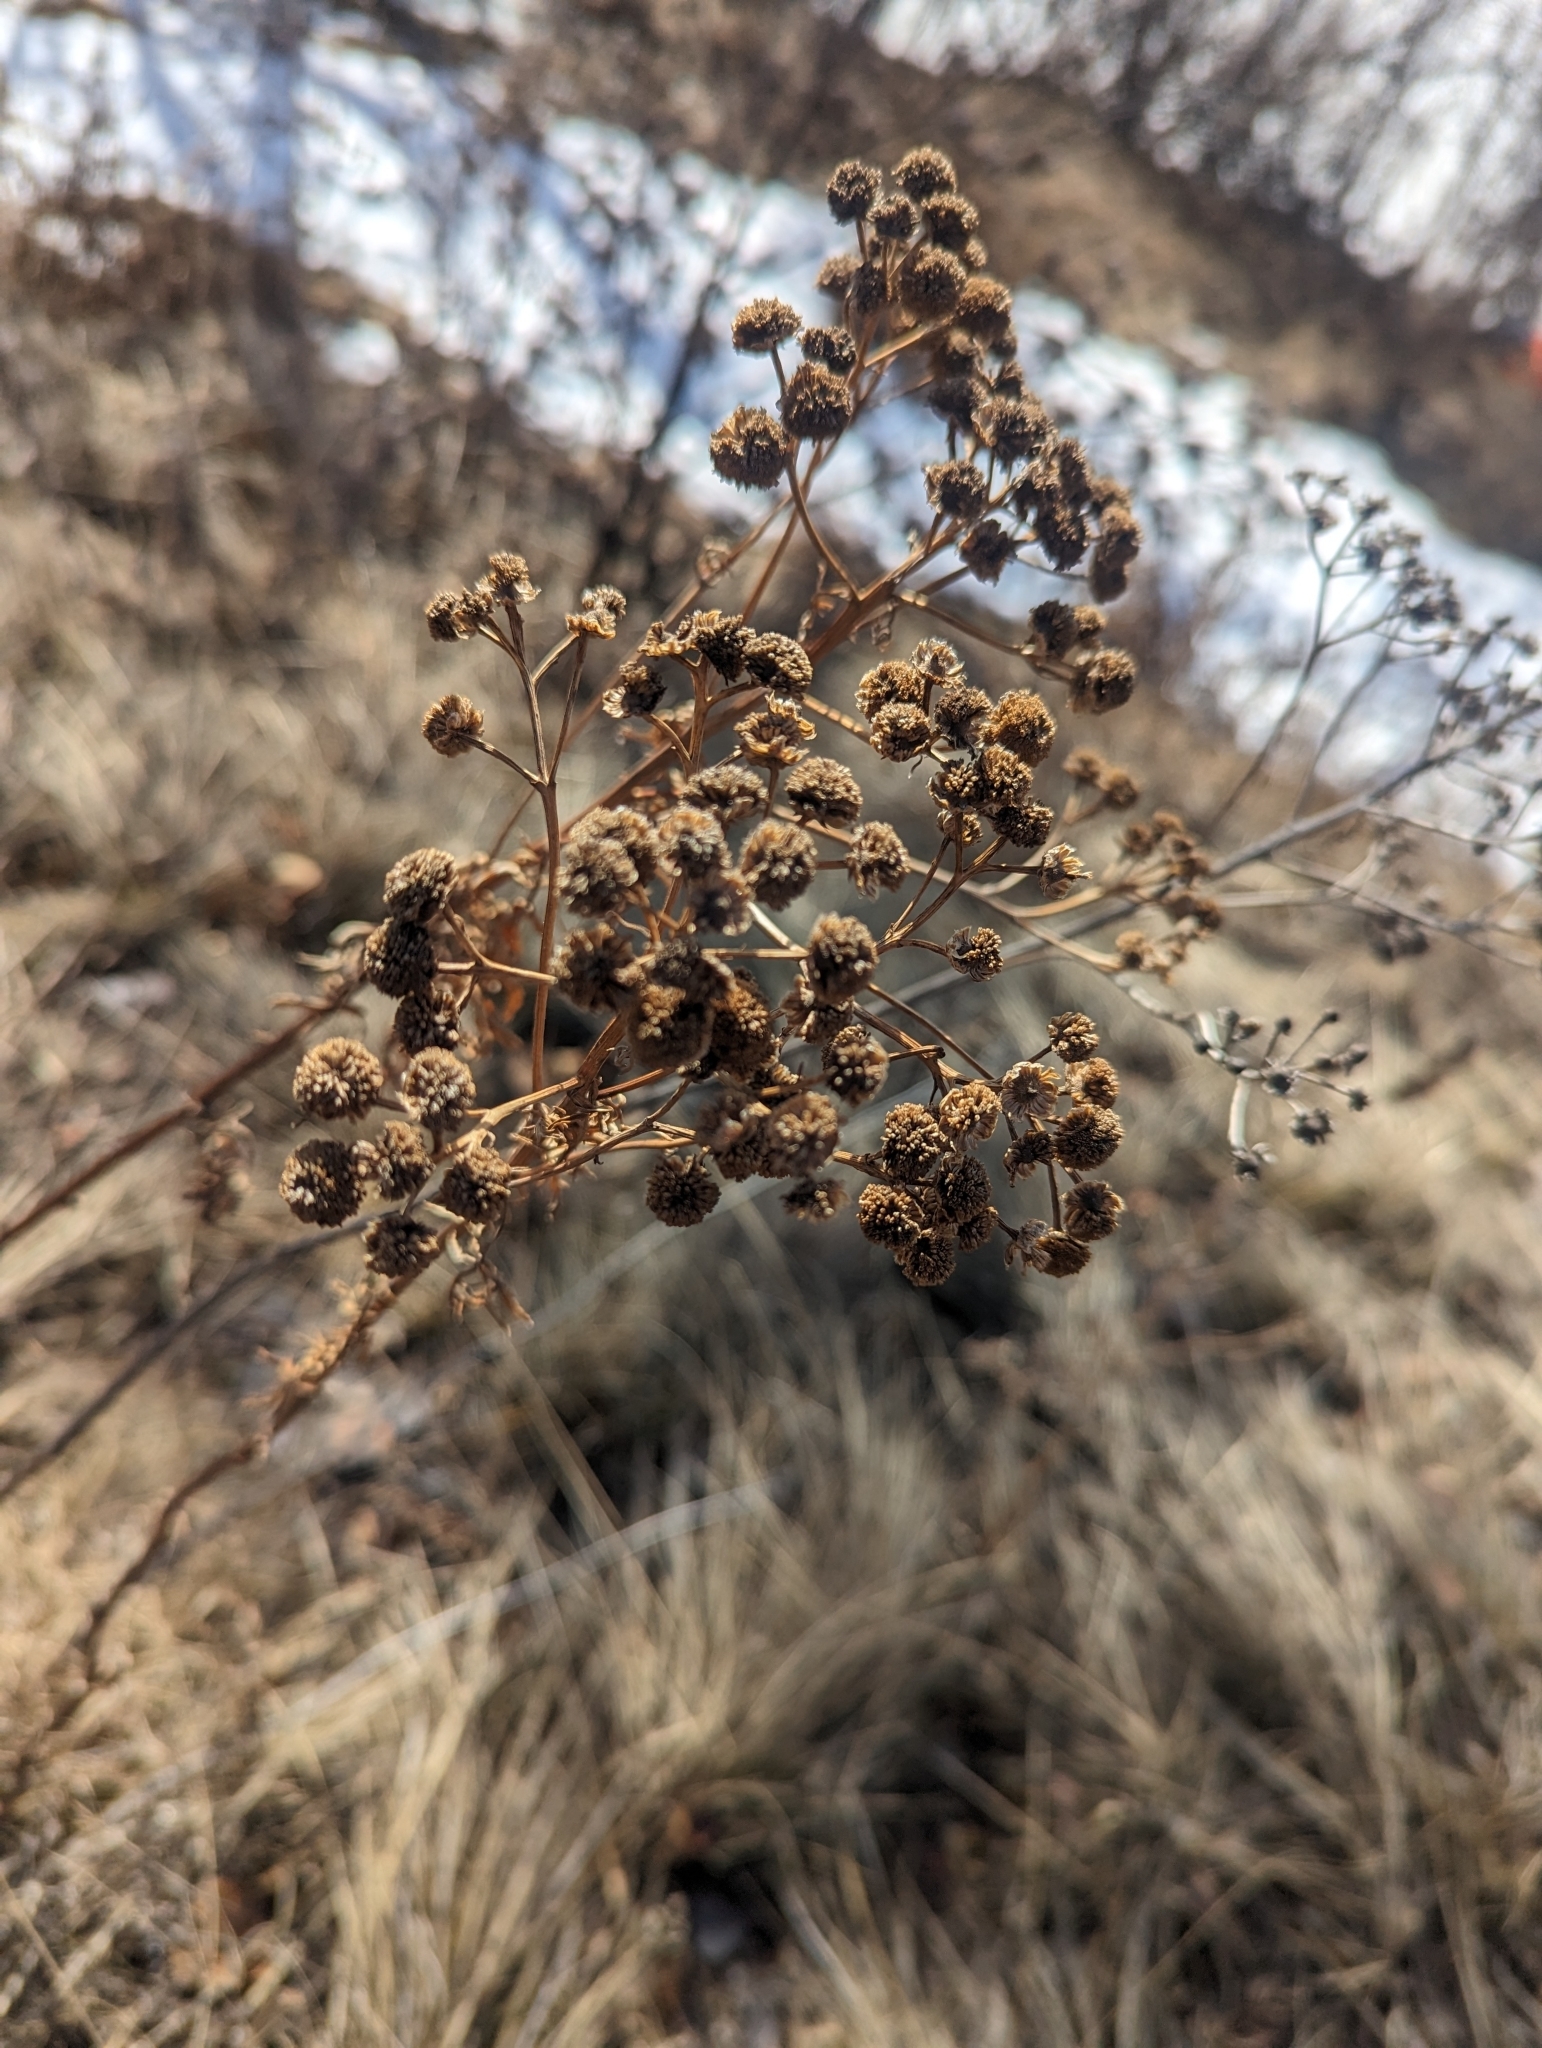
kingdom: Plantae
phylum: Tracheophyta
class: Magnoliopsida
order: Asterales
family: Asteraceae
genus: Tanacetum
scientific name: Tanacetum vulgare
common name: Common tansy
